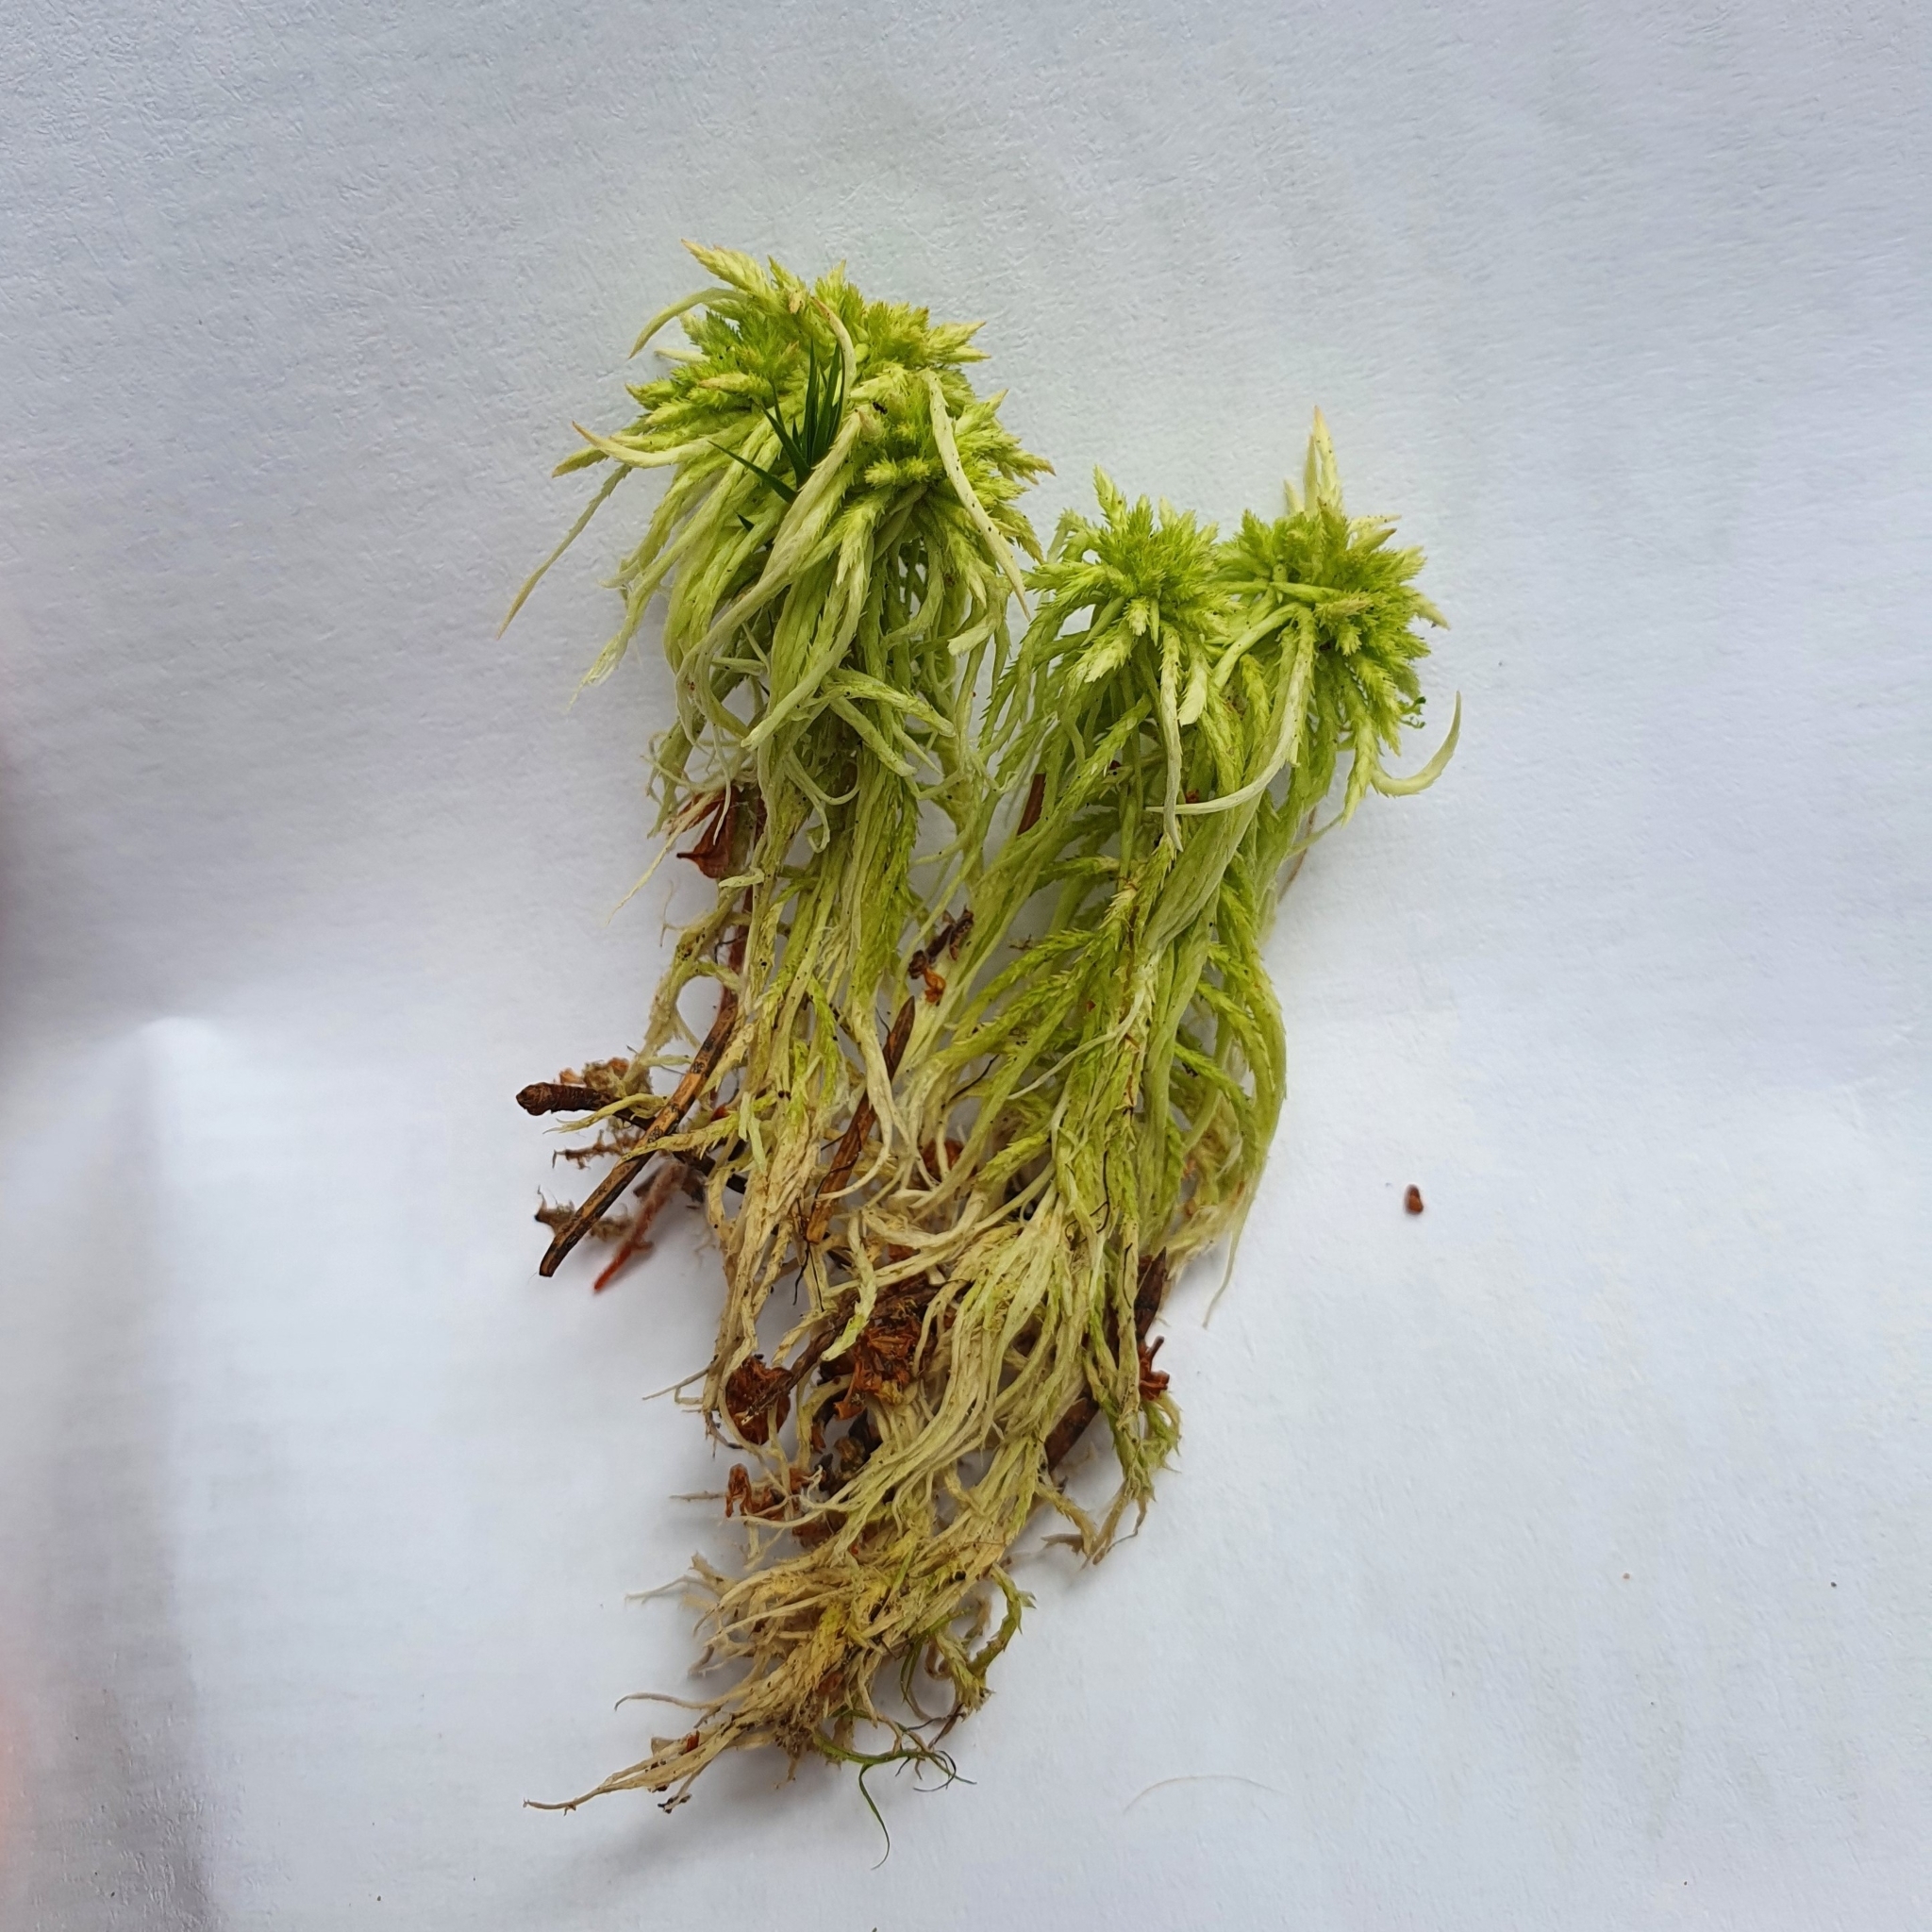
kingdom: Plantae
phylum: Bryophyta
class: Sphagnopsida
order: Sphagnales
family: Sphagnaceae
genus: Sphagnum
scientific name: Sphagnum girgensohnii
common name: Girgensohn's peat moss
